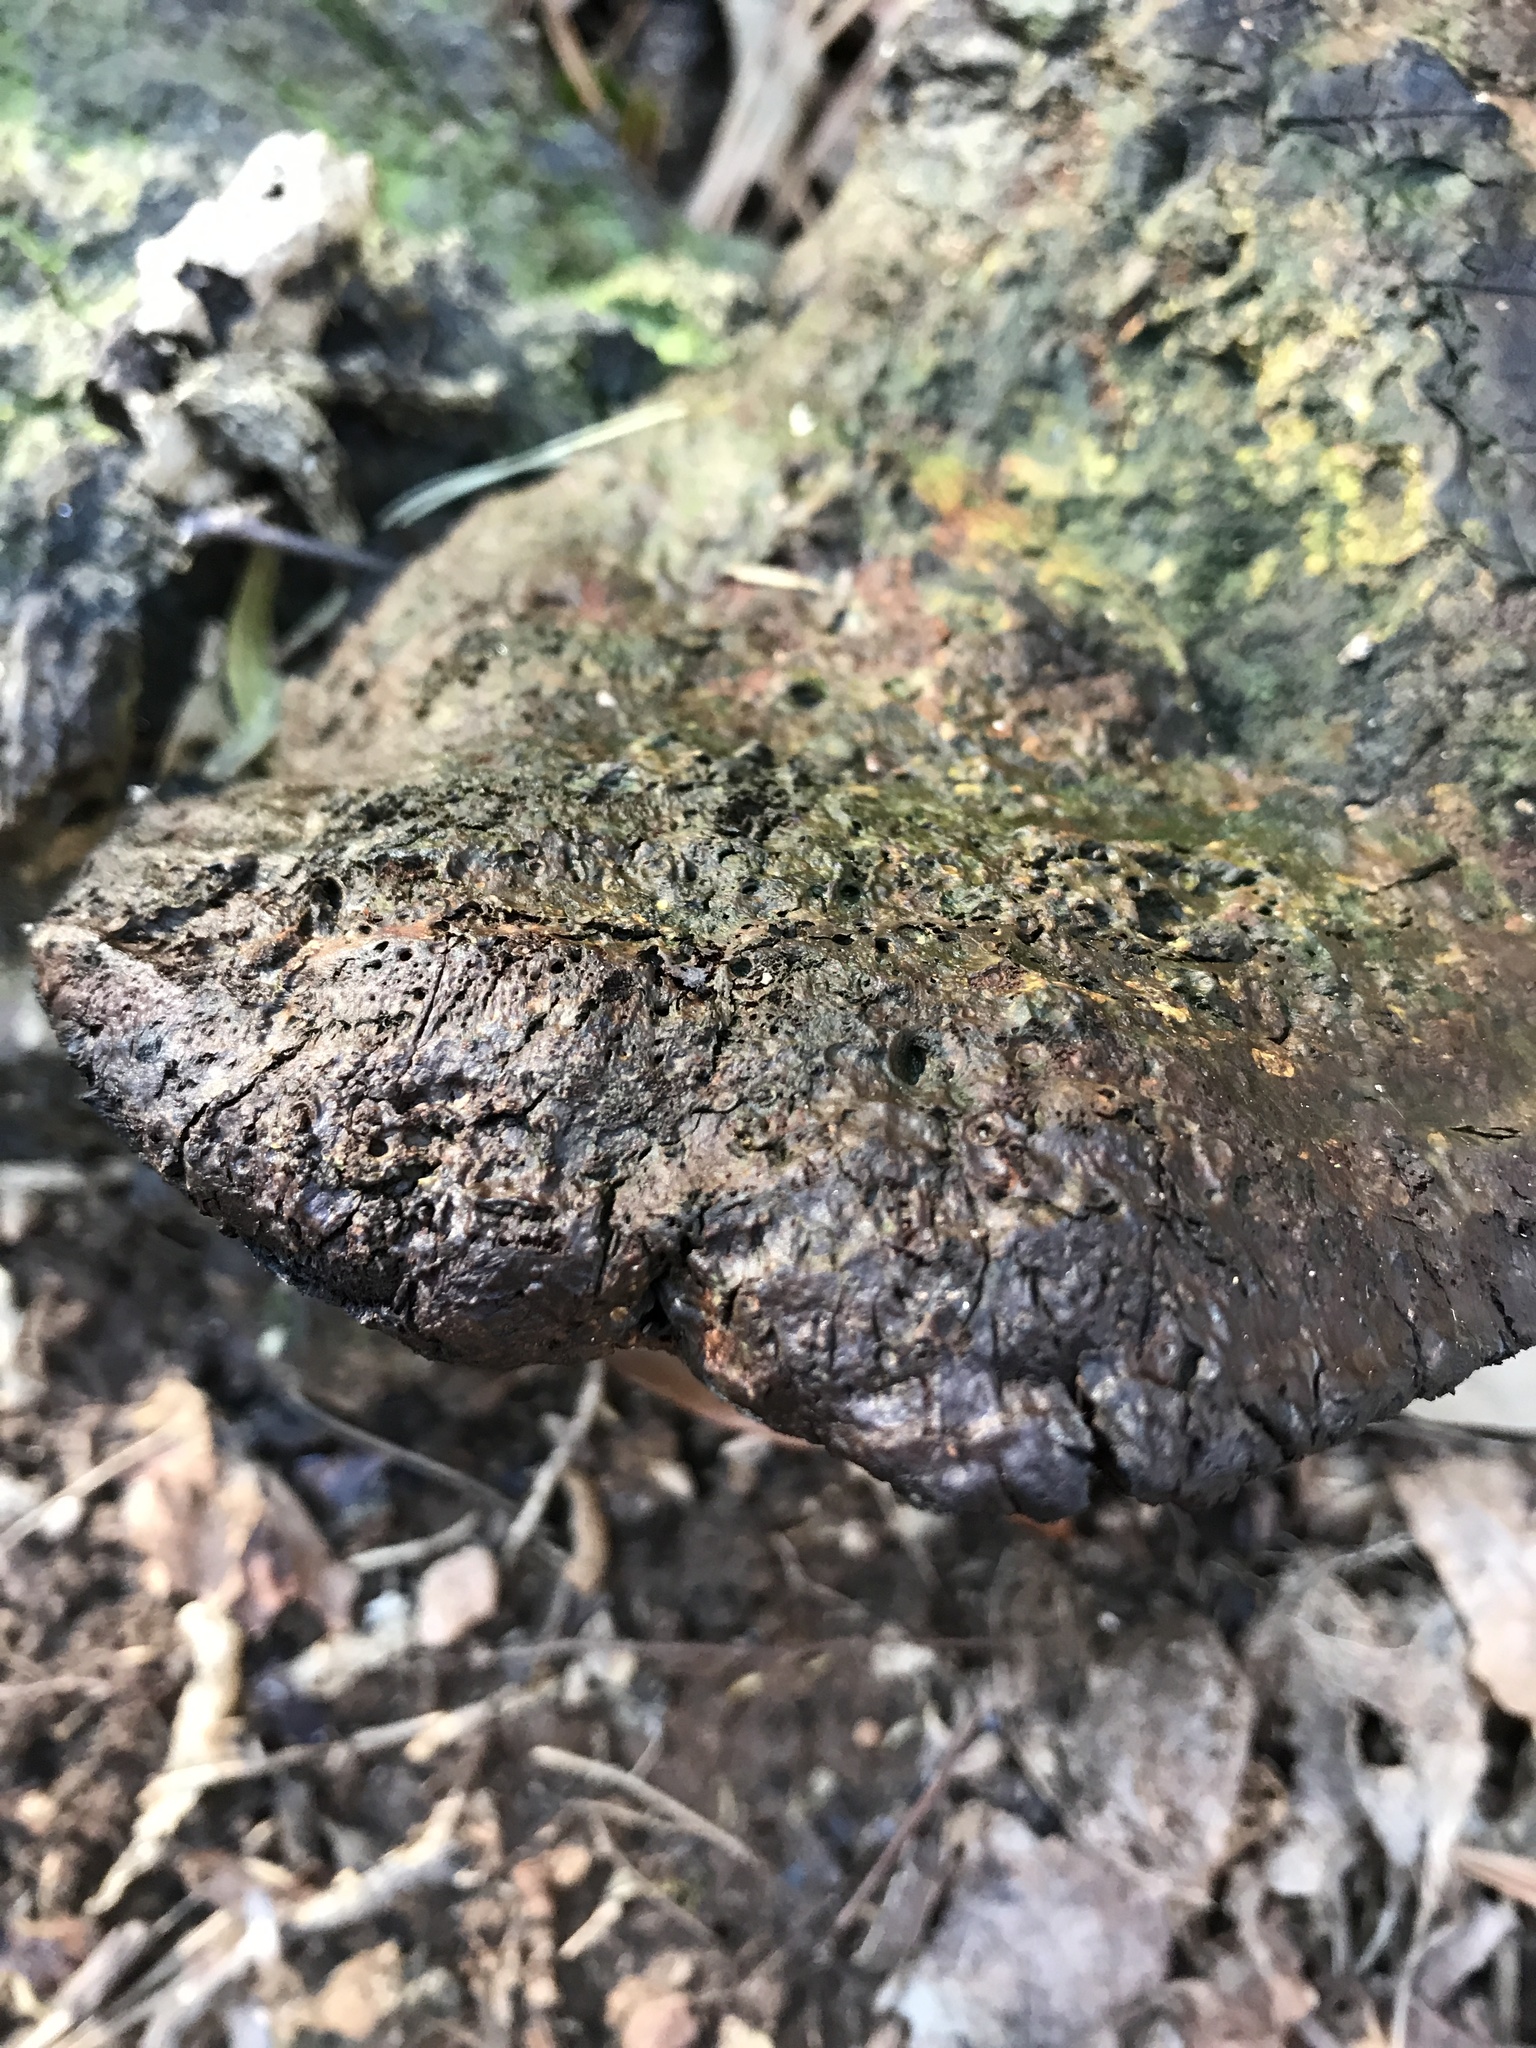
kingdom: Fungi
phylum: Basidiomycota
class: Agaricomycetes
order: Polyporales
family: Polyporaceae
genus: Ganoderma
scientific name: Ganoderma resinaceum
